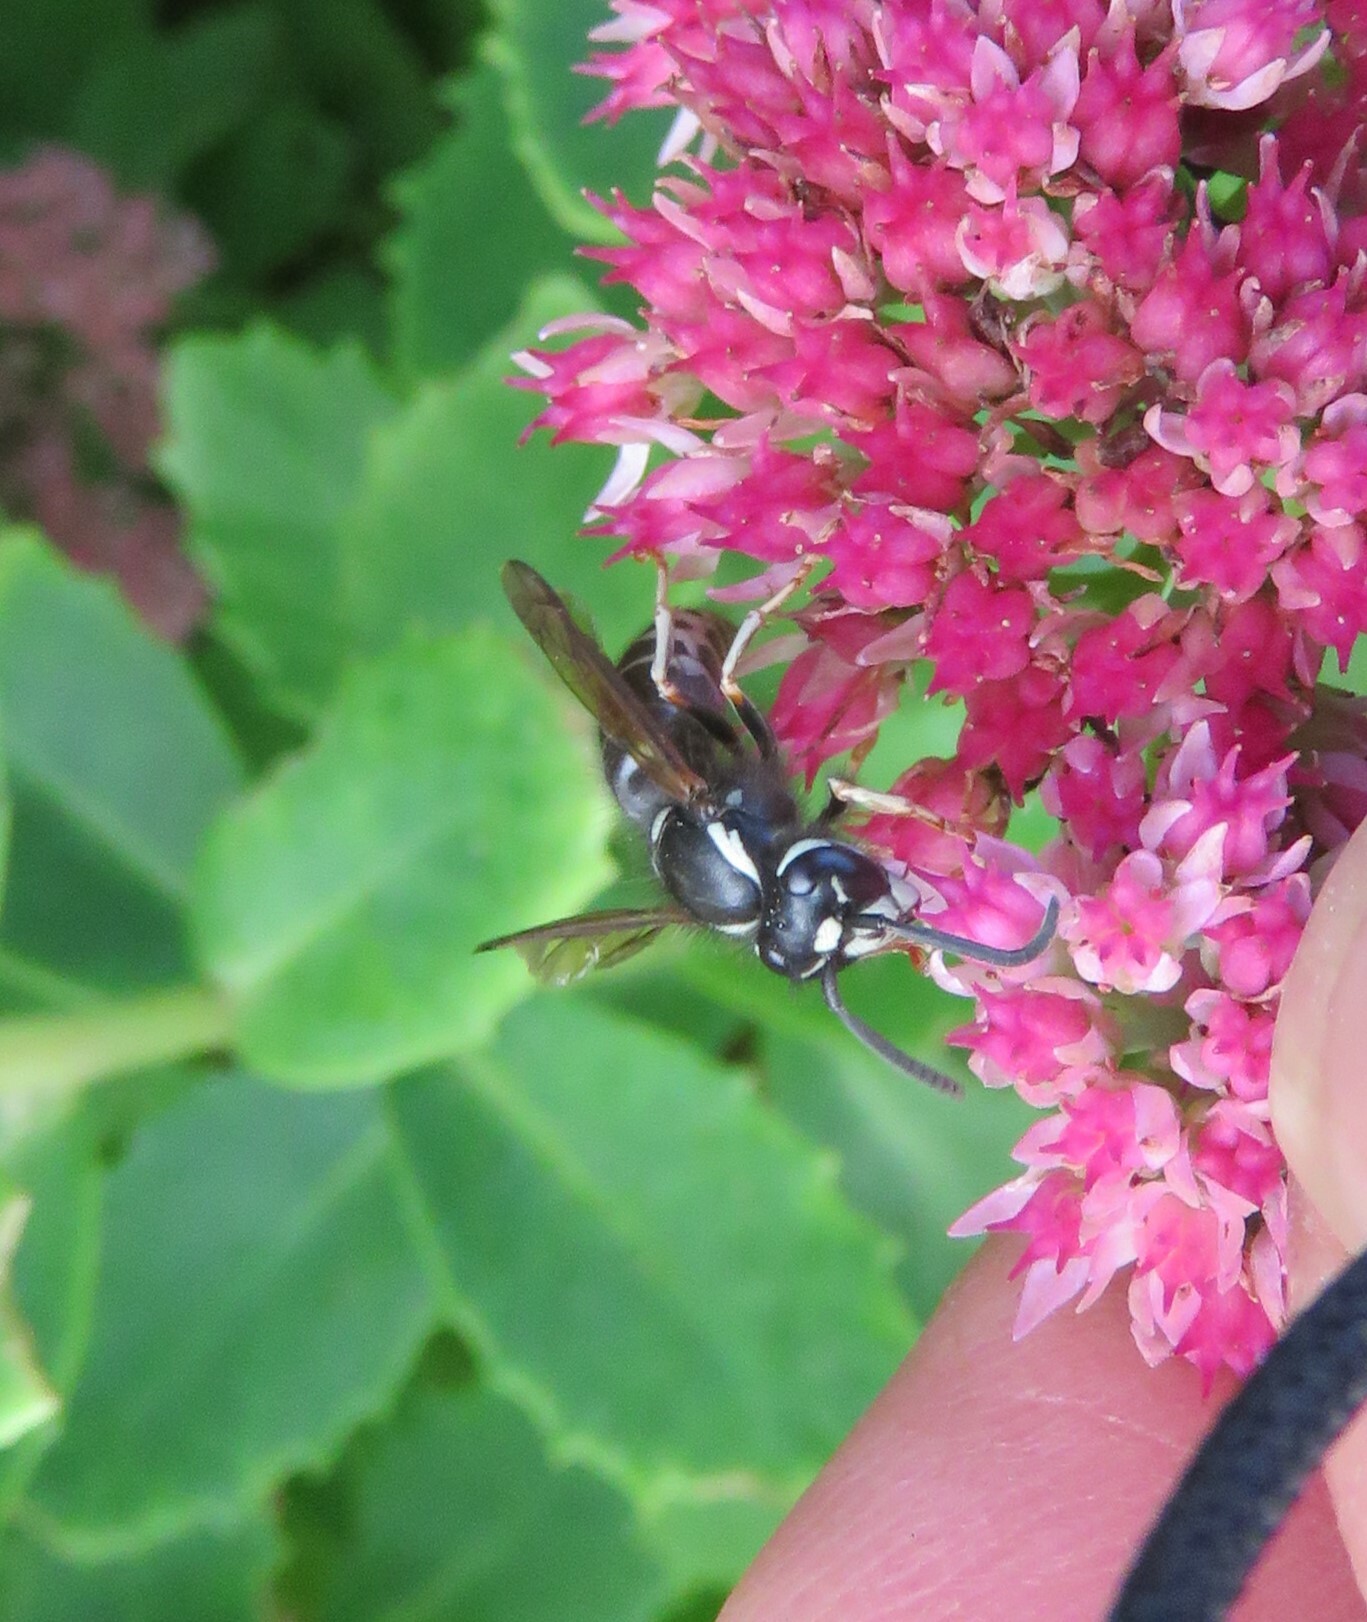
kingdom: Animalia
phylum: Arthropoda
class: Insecta
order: Hymenoptera
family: Vespidae
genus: Vespula
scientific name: Vespula consobrina
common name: Blackjacket
